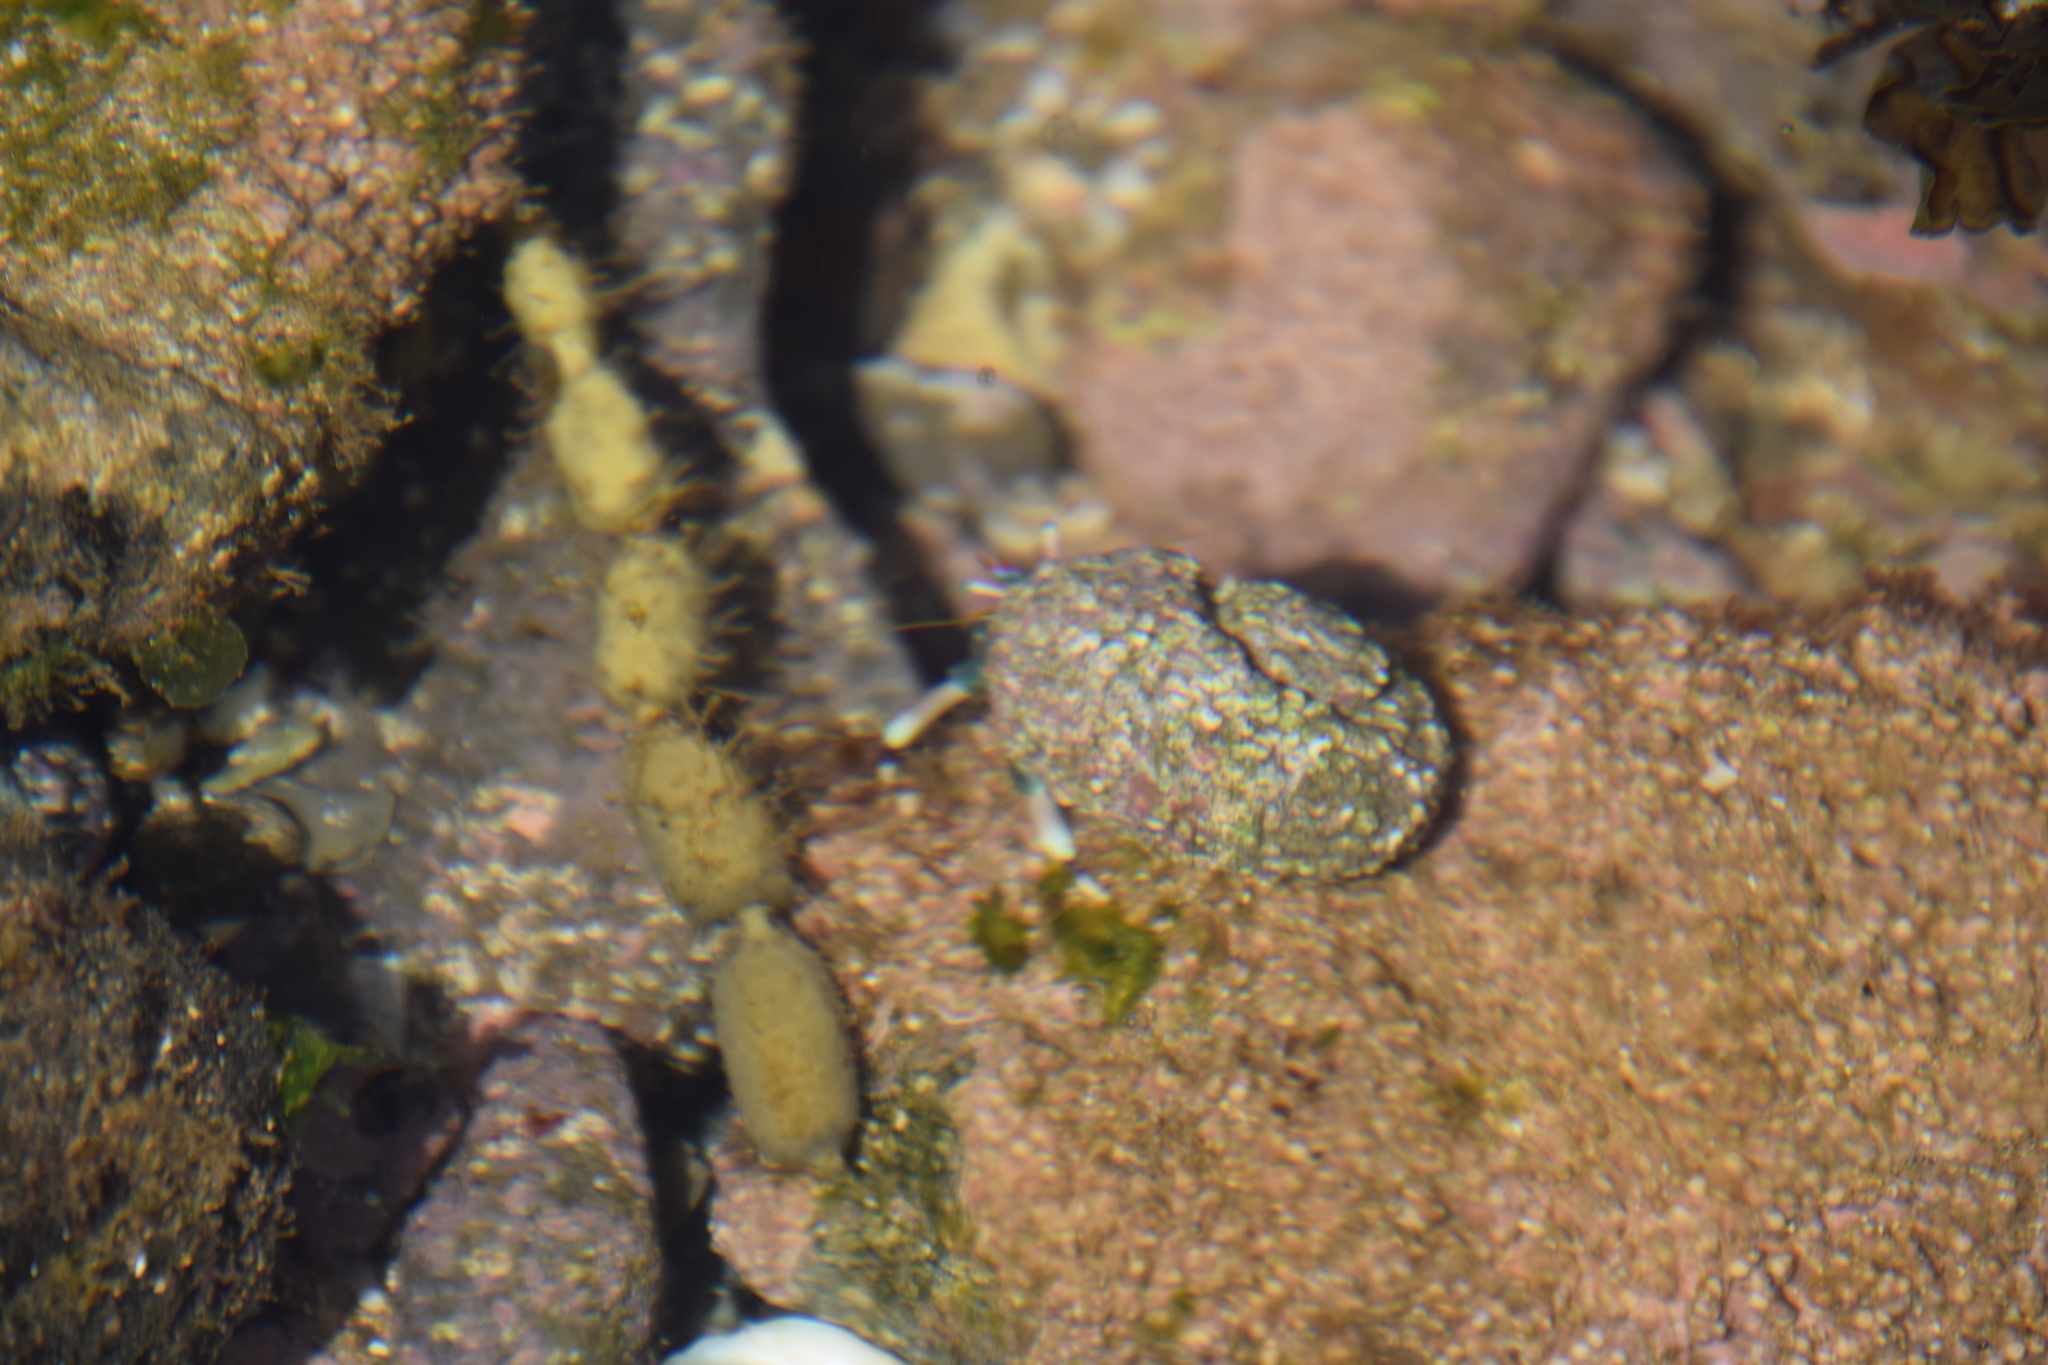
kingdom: Animalia
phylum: Arthropoda
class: Malacostraca
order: Decapoda
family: Diogenidae
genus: Calcinus
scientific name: Calcinus latens
